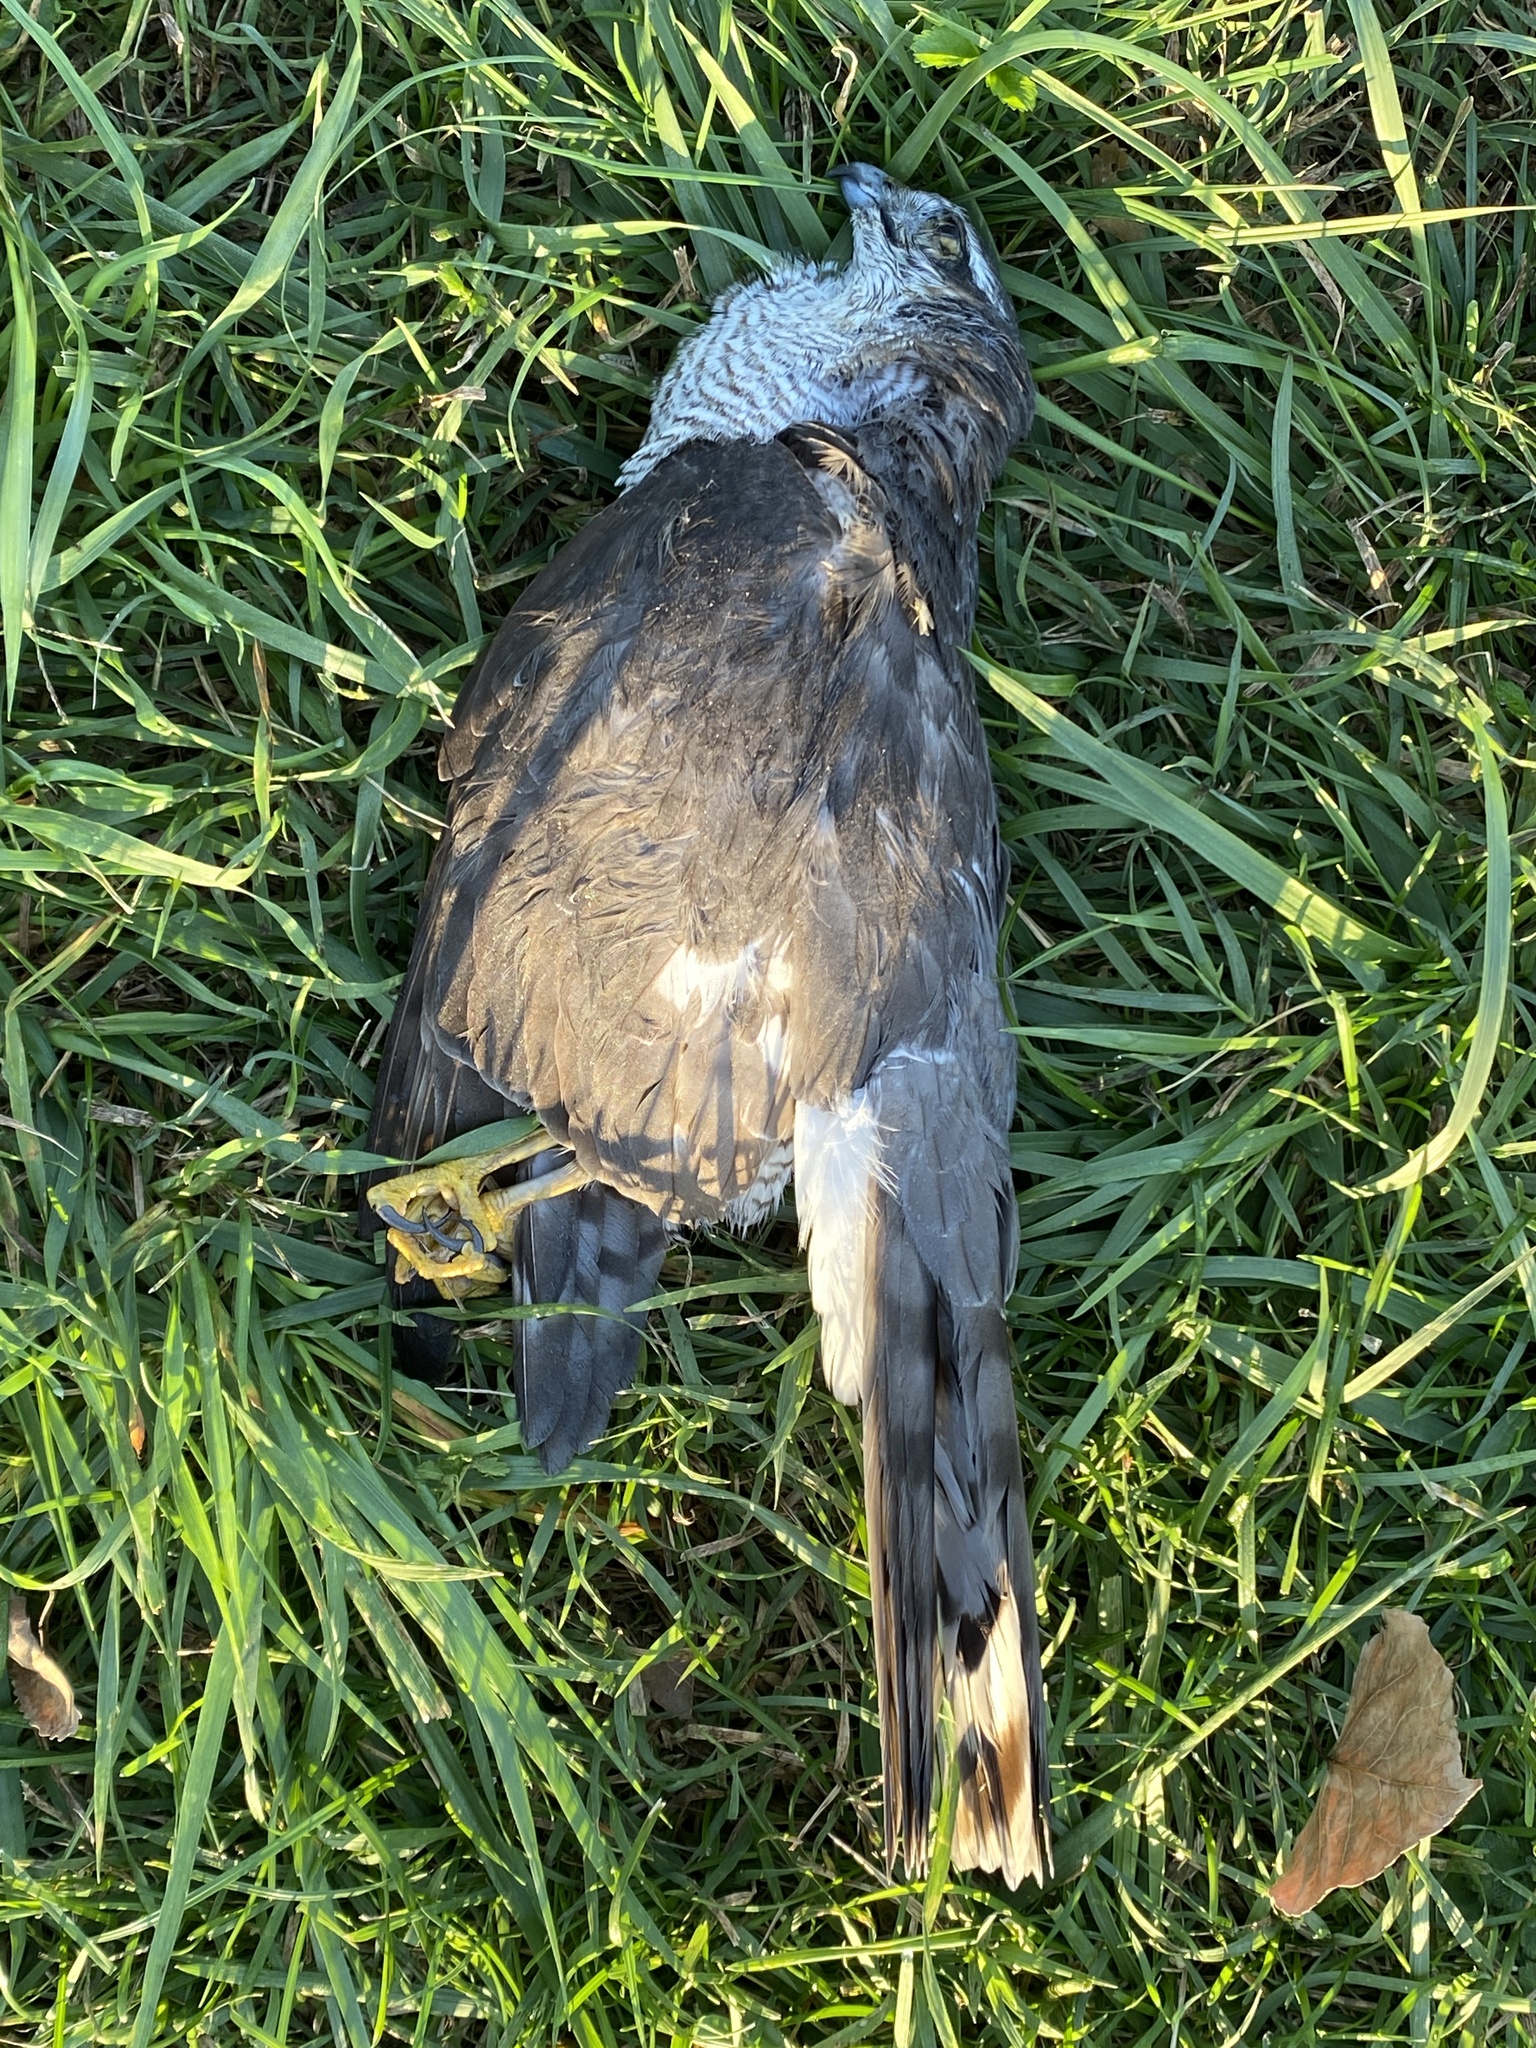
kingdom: Animalia
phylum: Chordata
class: Aves
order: Accipitriformes
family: Accipitridae
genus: Accipiter
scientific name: Accipiter nisus
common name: Eurasian sparrowhawk
